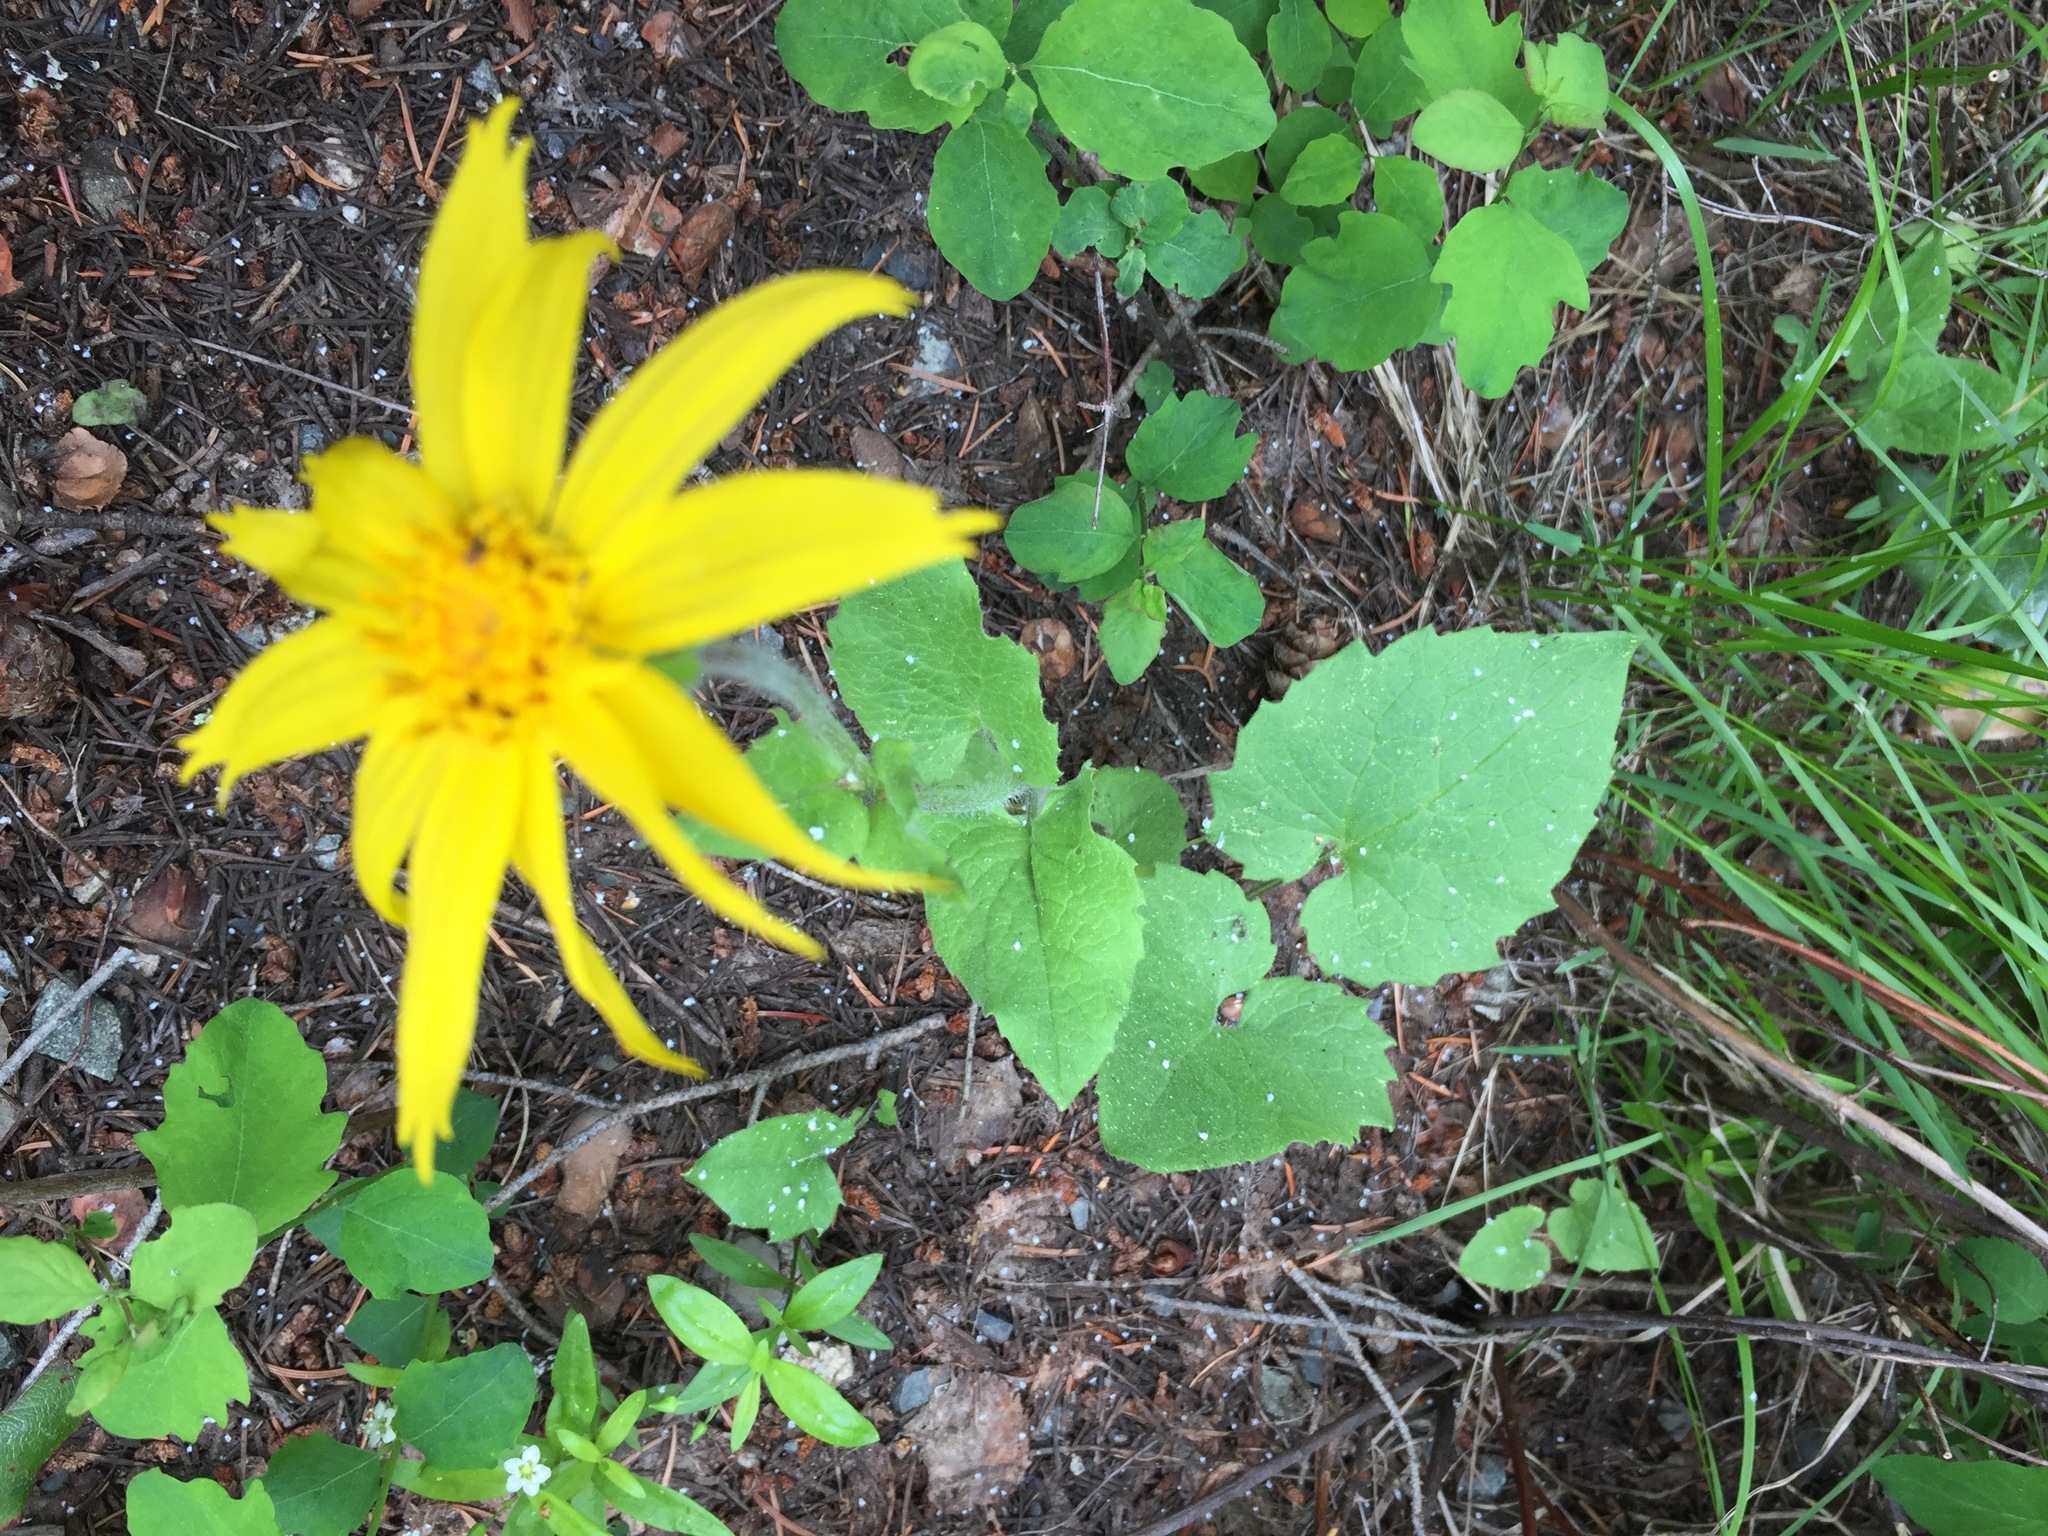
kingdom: Plantae
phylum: Tracheophyta
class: Magnoliopsida
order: Asterales
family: Asteraceae
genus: Arnica
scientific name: Arnica cordifolia
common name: Heart-leaf arnica
